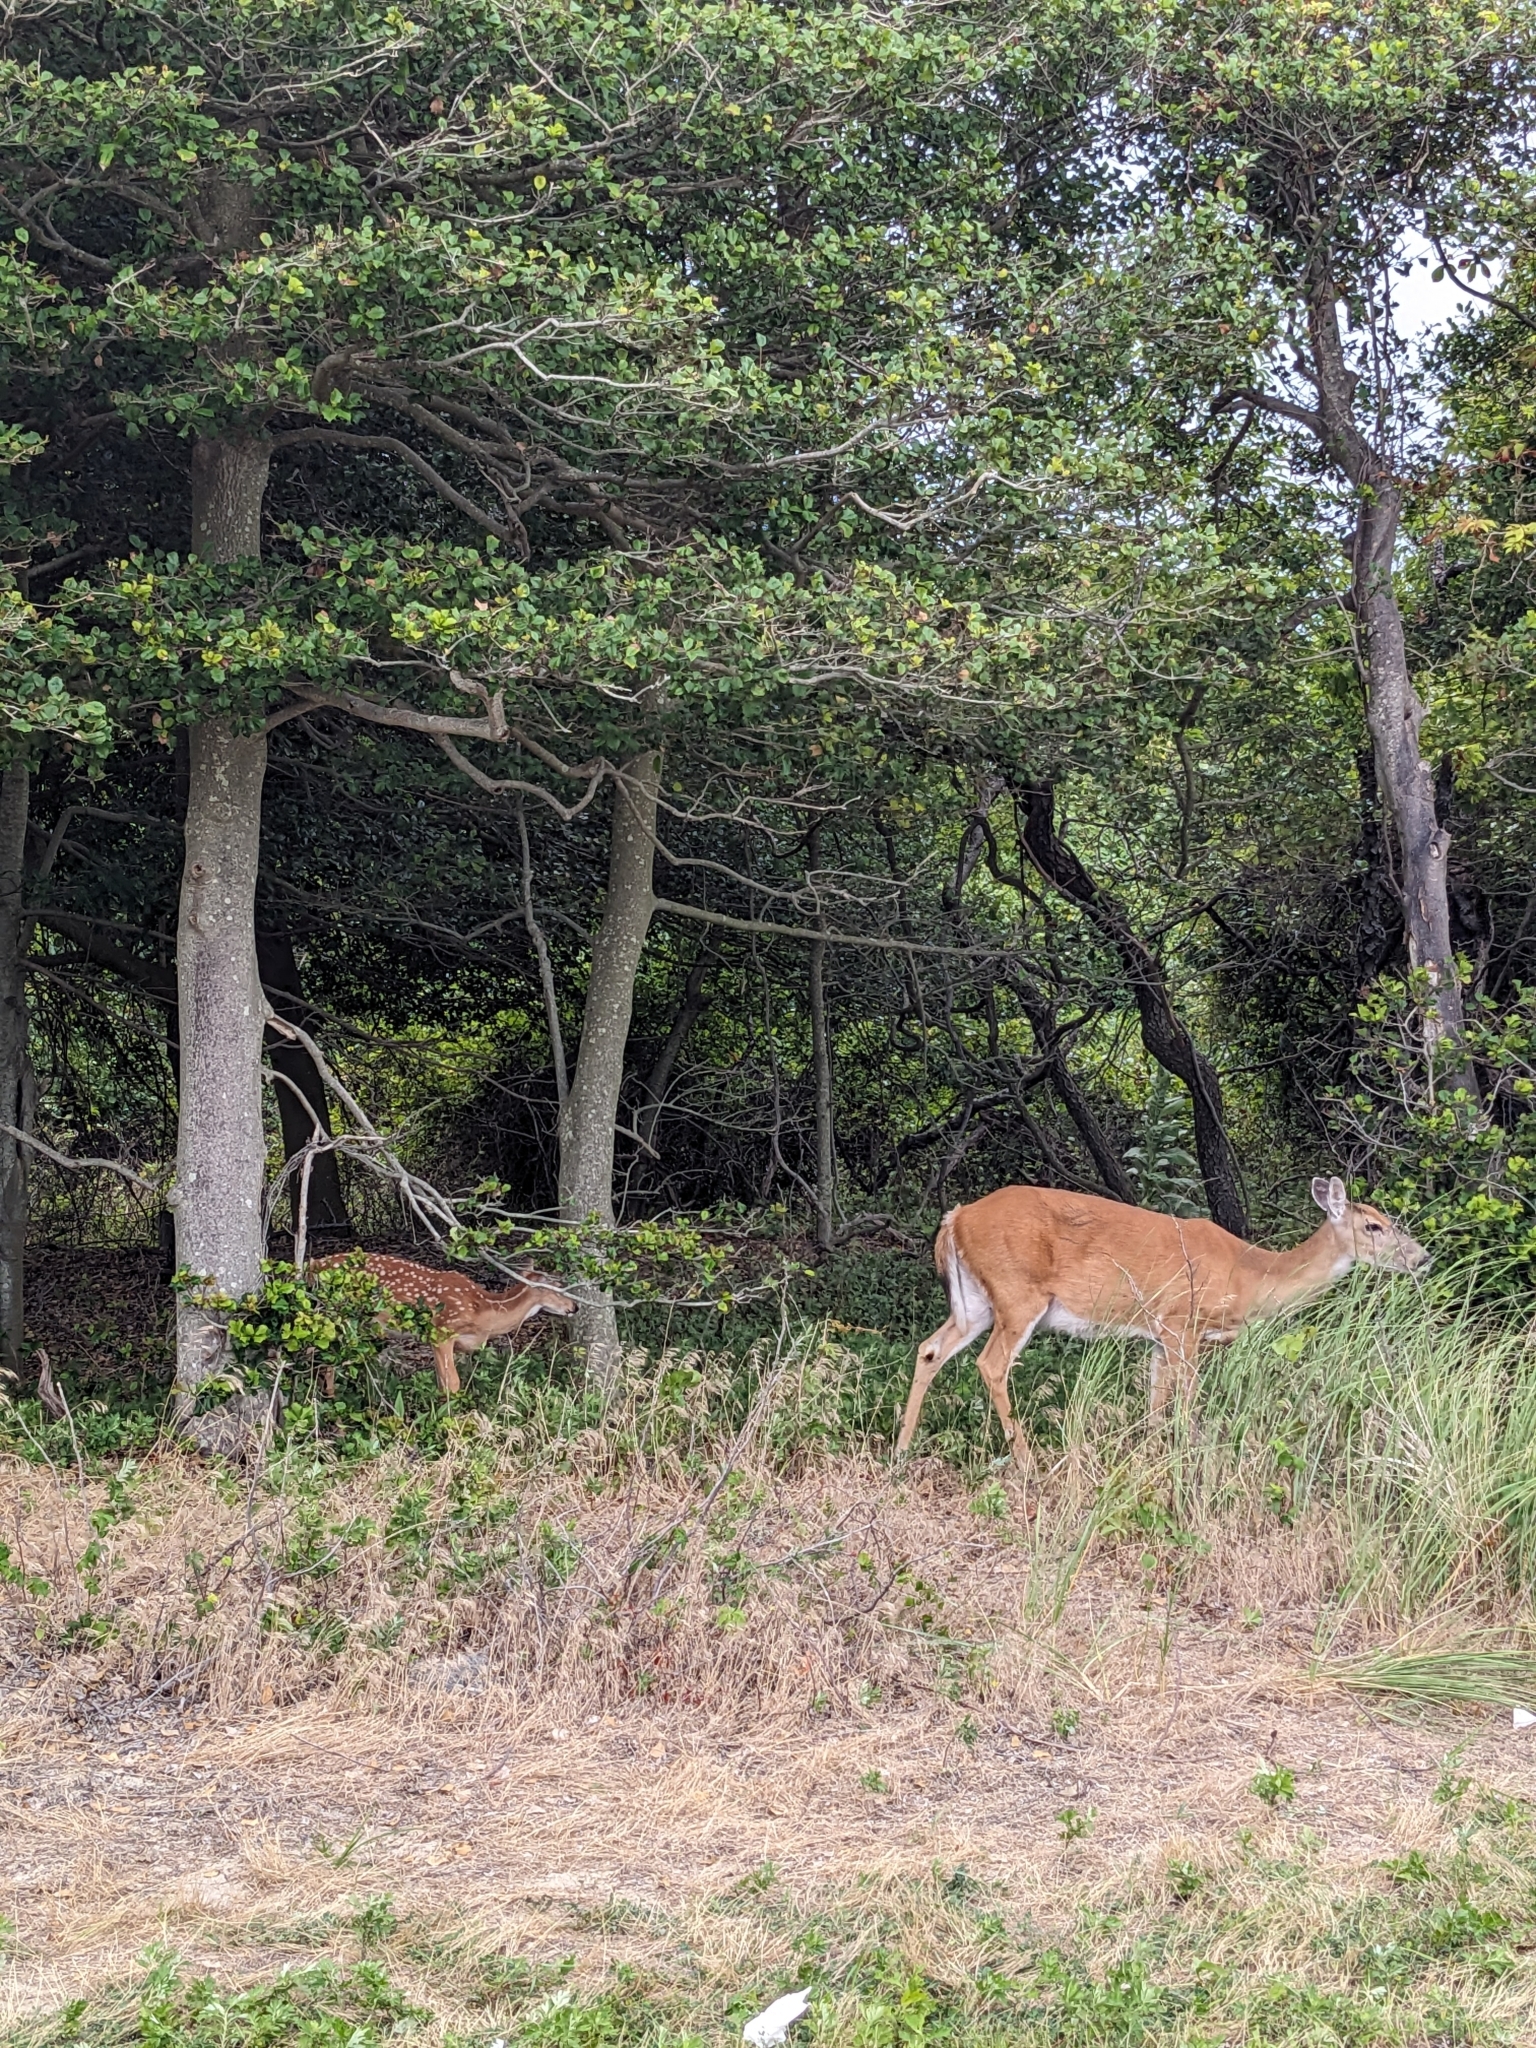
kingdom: Animalia
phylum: Chordata
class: Mammalia
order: Artiodactyla
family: Cervidae
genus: Odocoileus
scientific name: Odocoileus virginianus
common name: White-tailed deer
